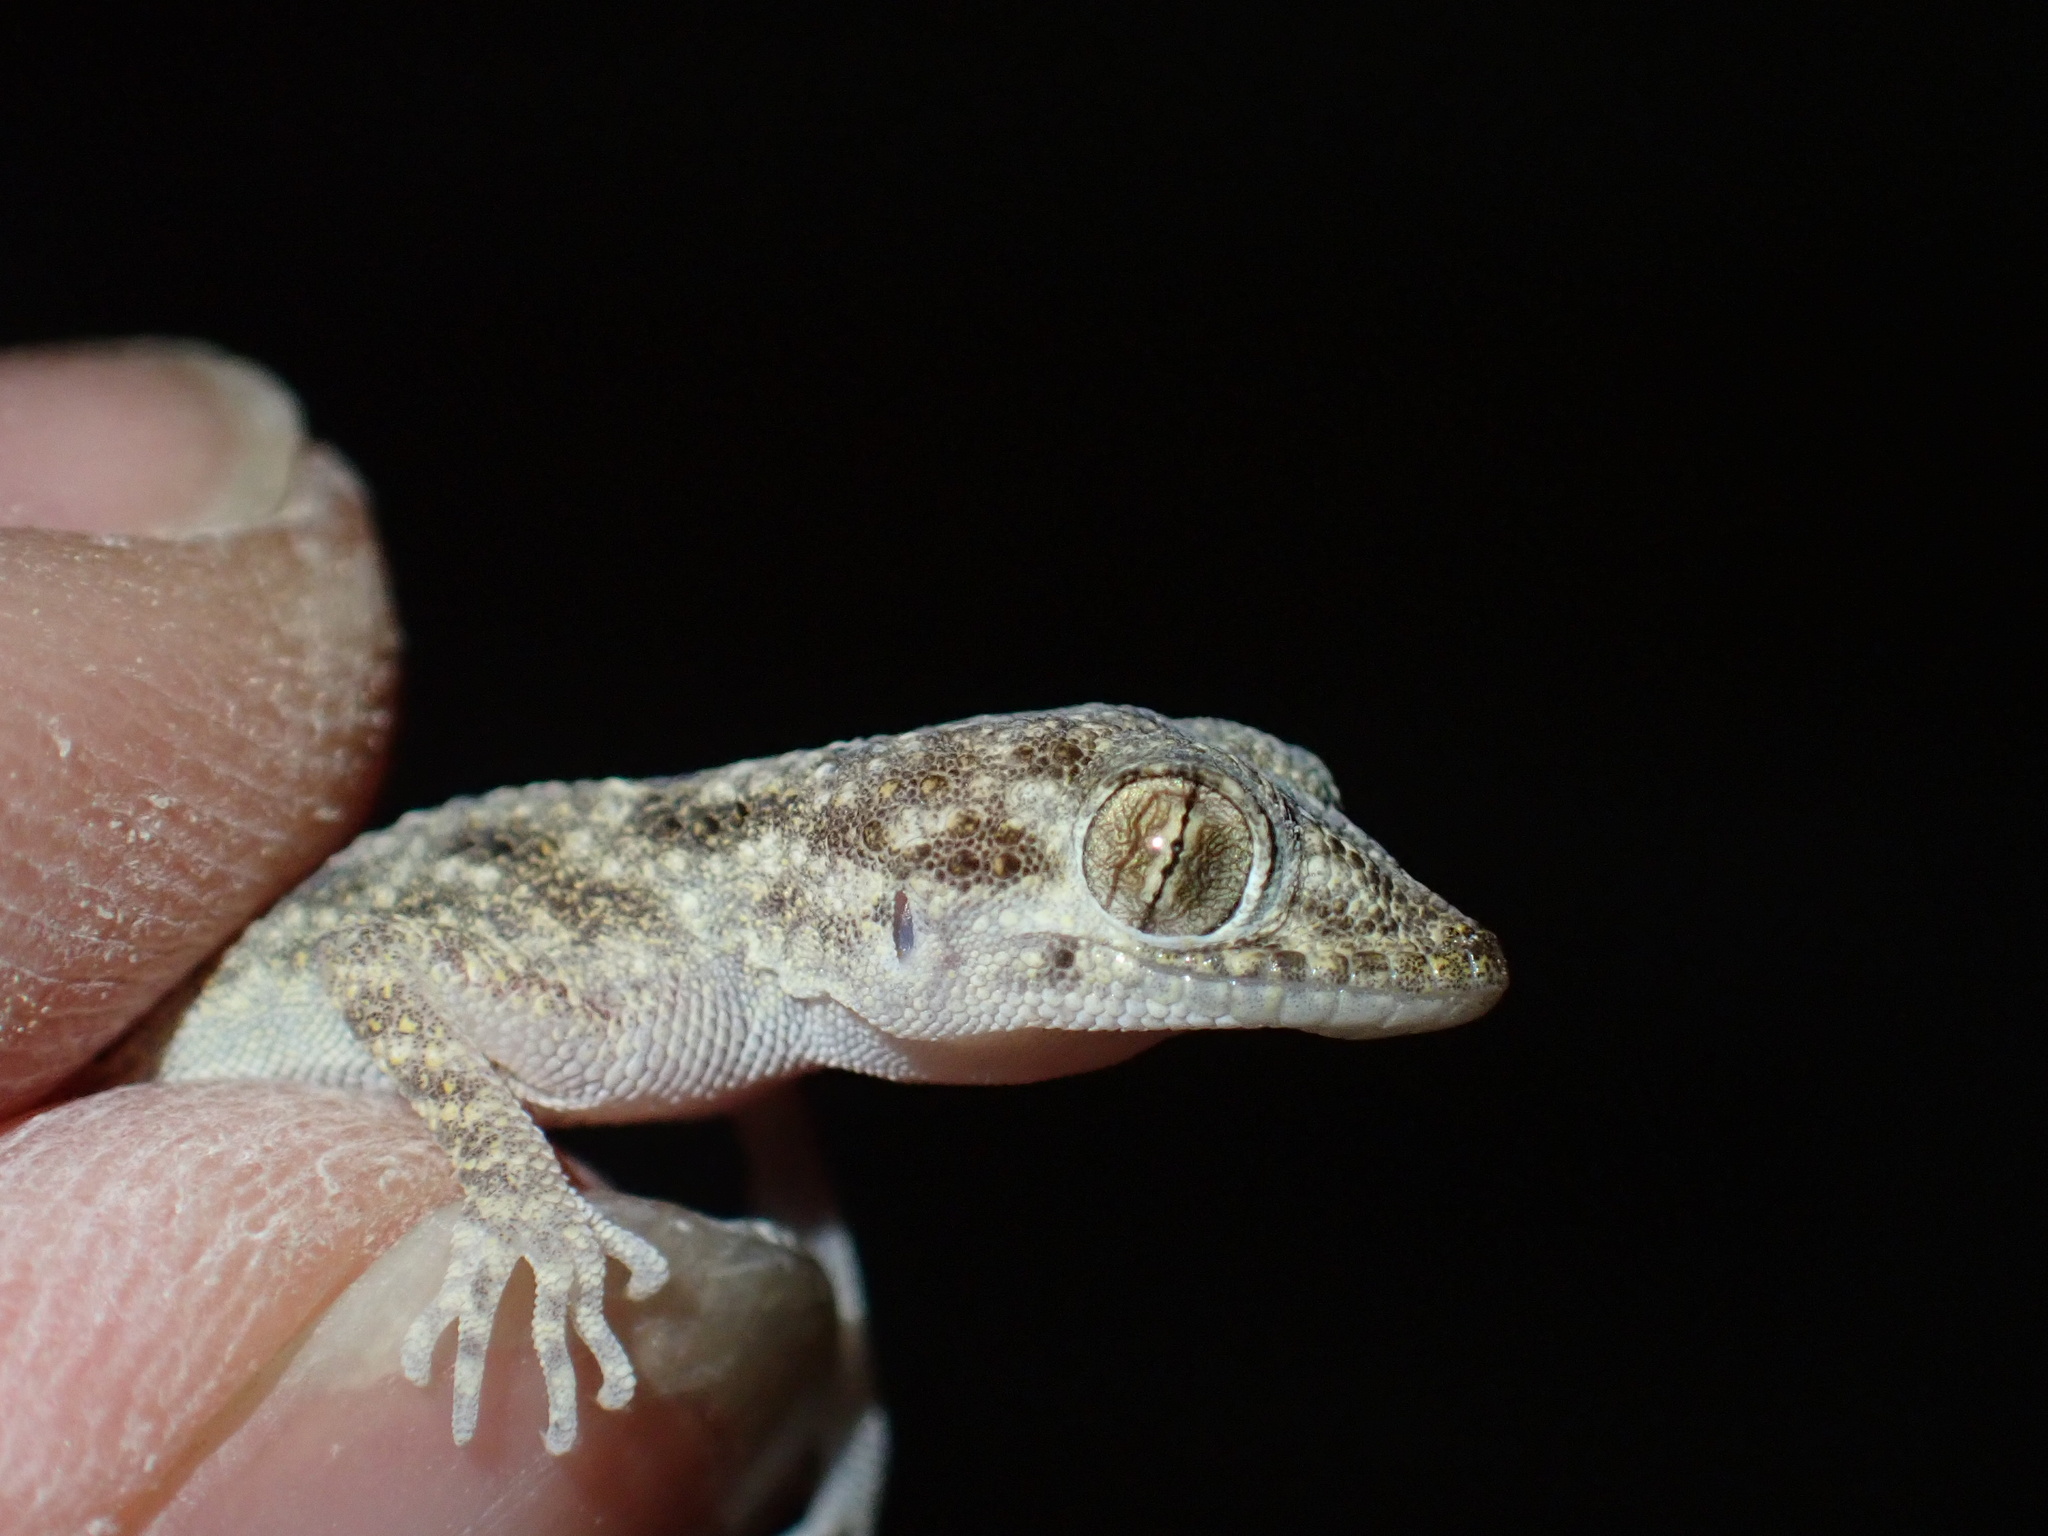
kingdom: Animalia
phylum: Chordata
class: Squamata
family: Gekkonidae
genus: Cyrtopodion
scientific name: Cyrtopodion scabrum
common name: Rough-tailed gecko
